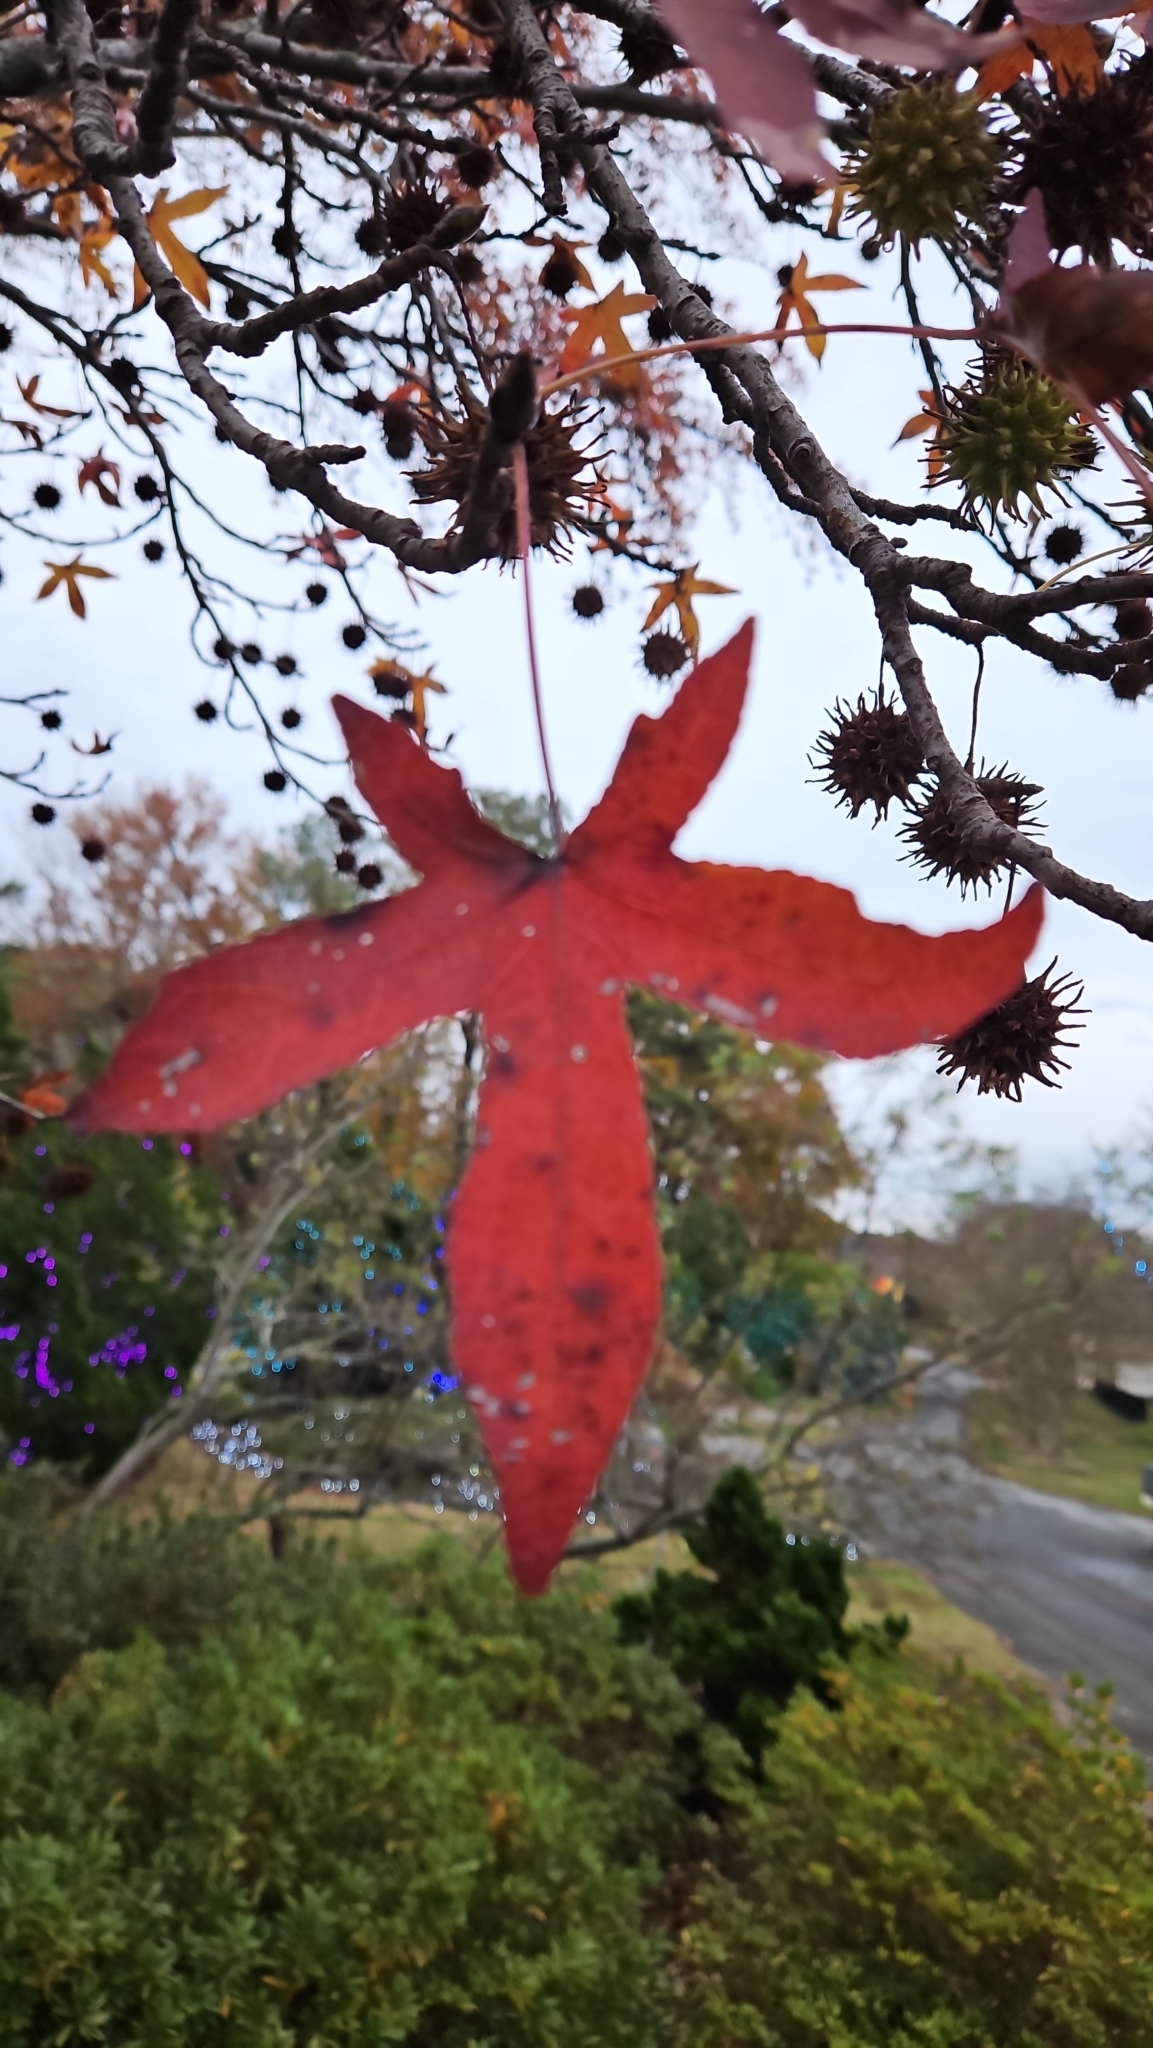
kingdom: Plantae
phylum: Tracheophyta
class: Magnoliopsida
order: Saxifragales
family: Altingiaceae
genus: Liquidambar
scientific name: Liquidambar styraciflua
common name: Sweet gum
